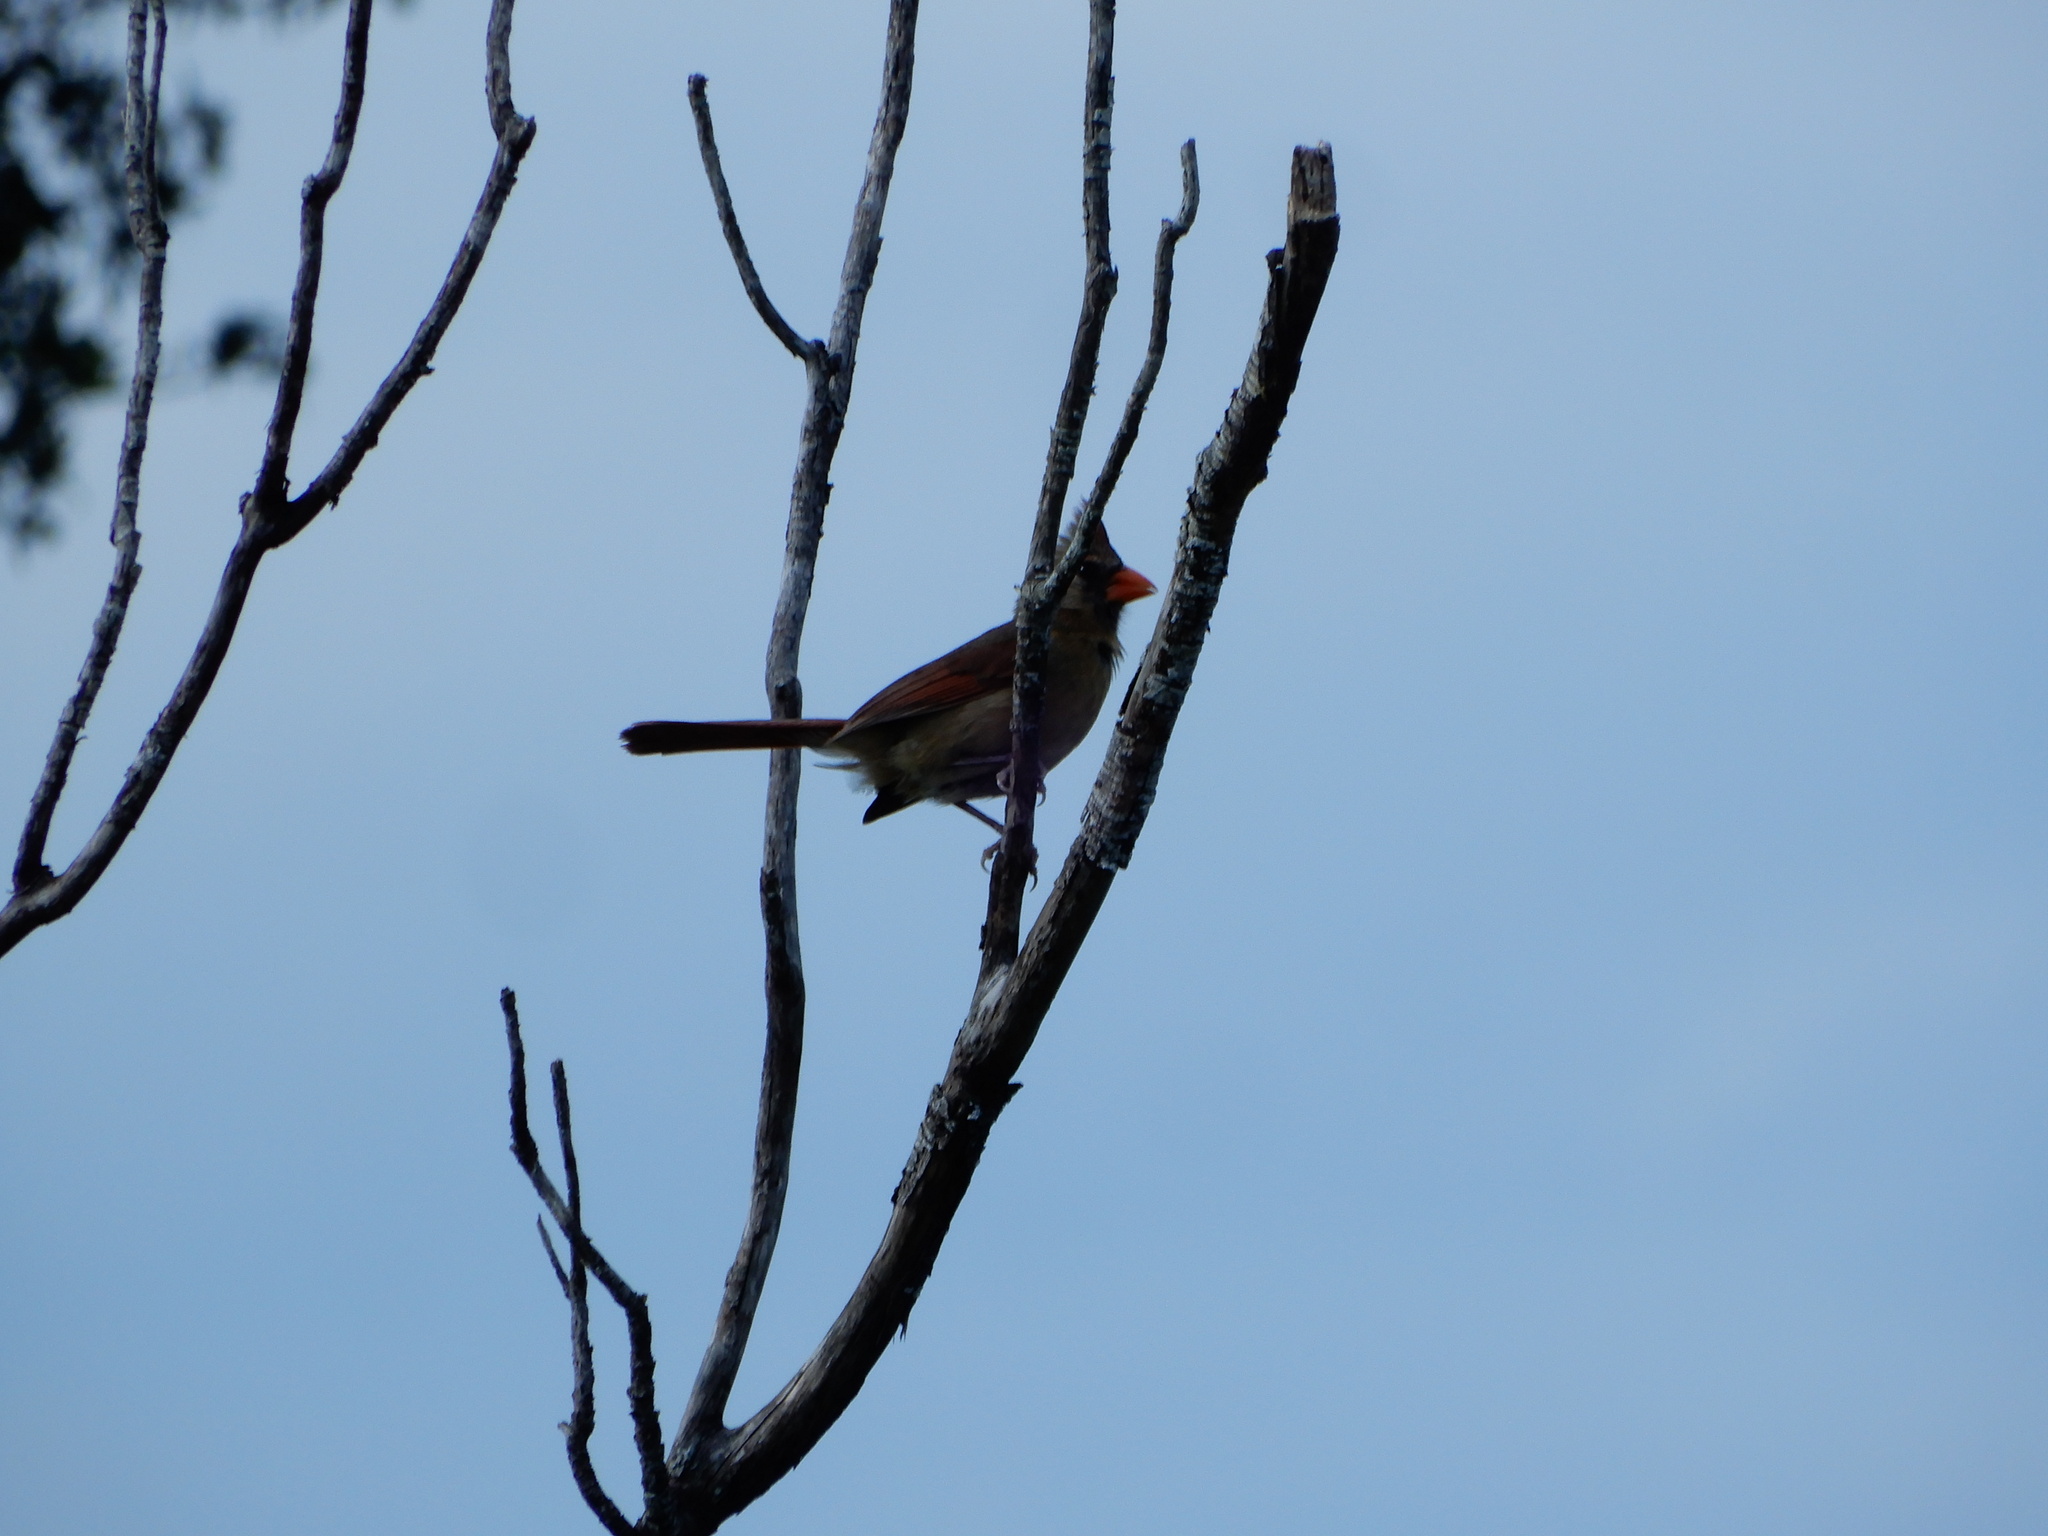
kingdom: Animalia
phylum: Chordata
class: Aves
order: Passeriformes
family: Cardinalidae
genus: Cardinalis
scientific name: Cardinalis cardinalis
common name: Northern cardinal
